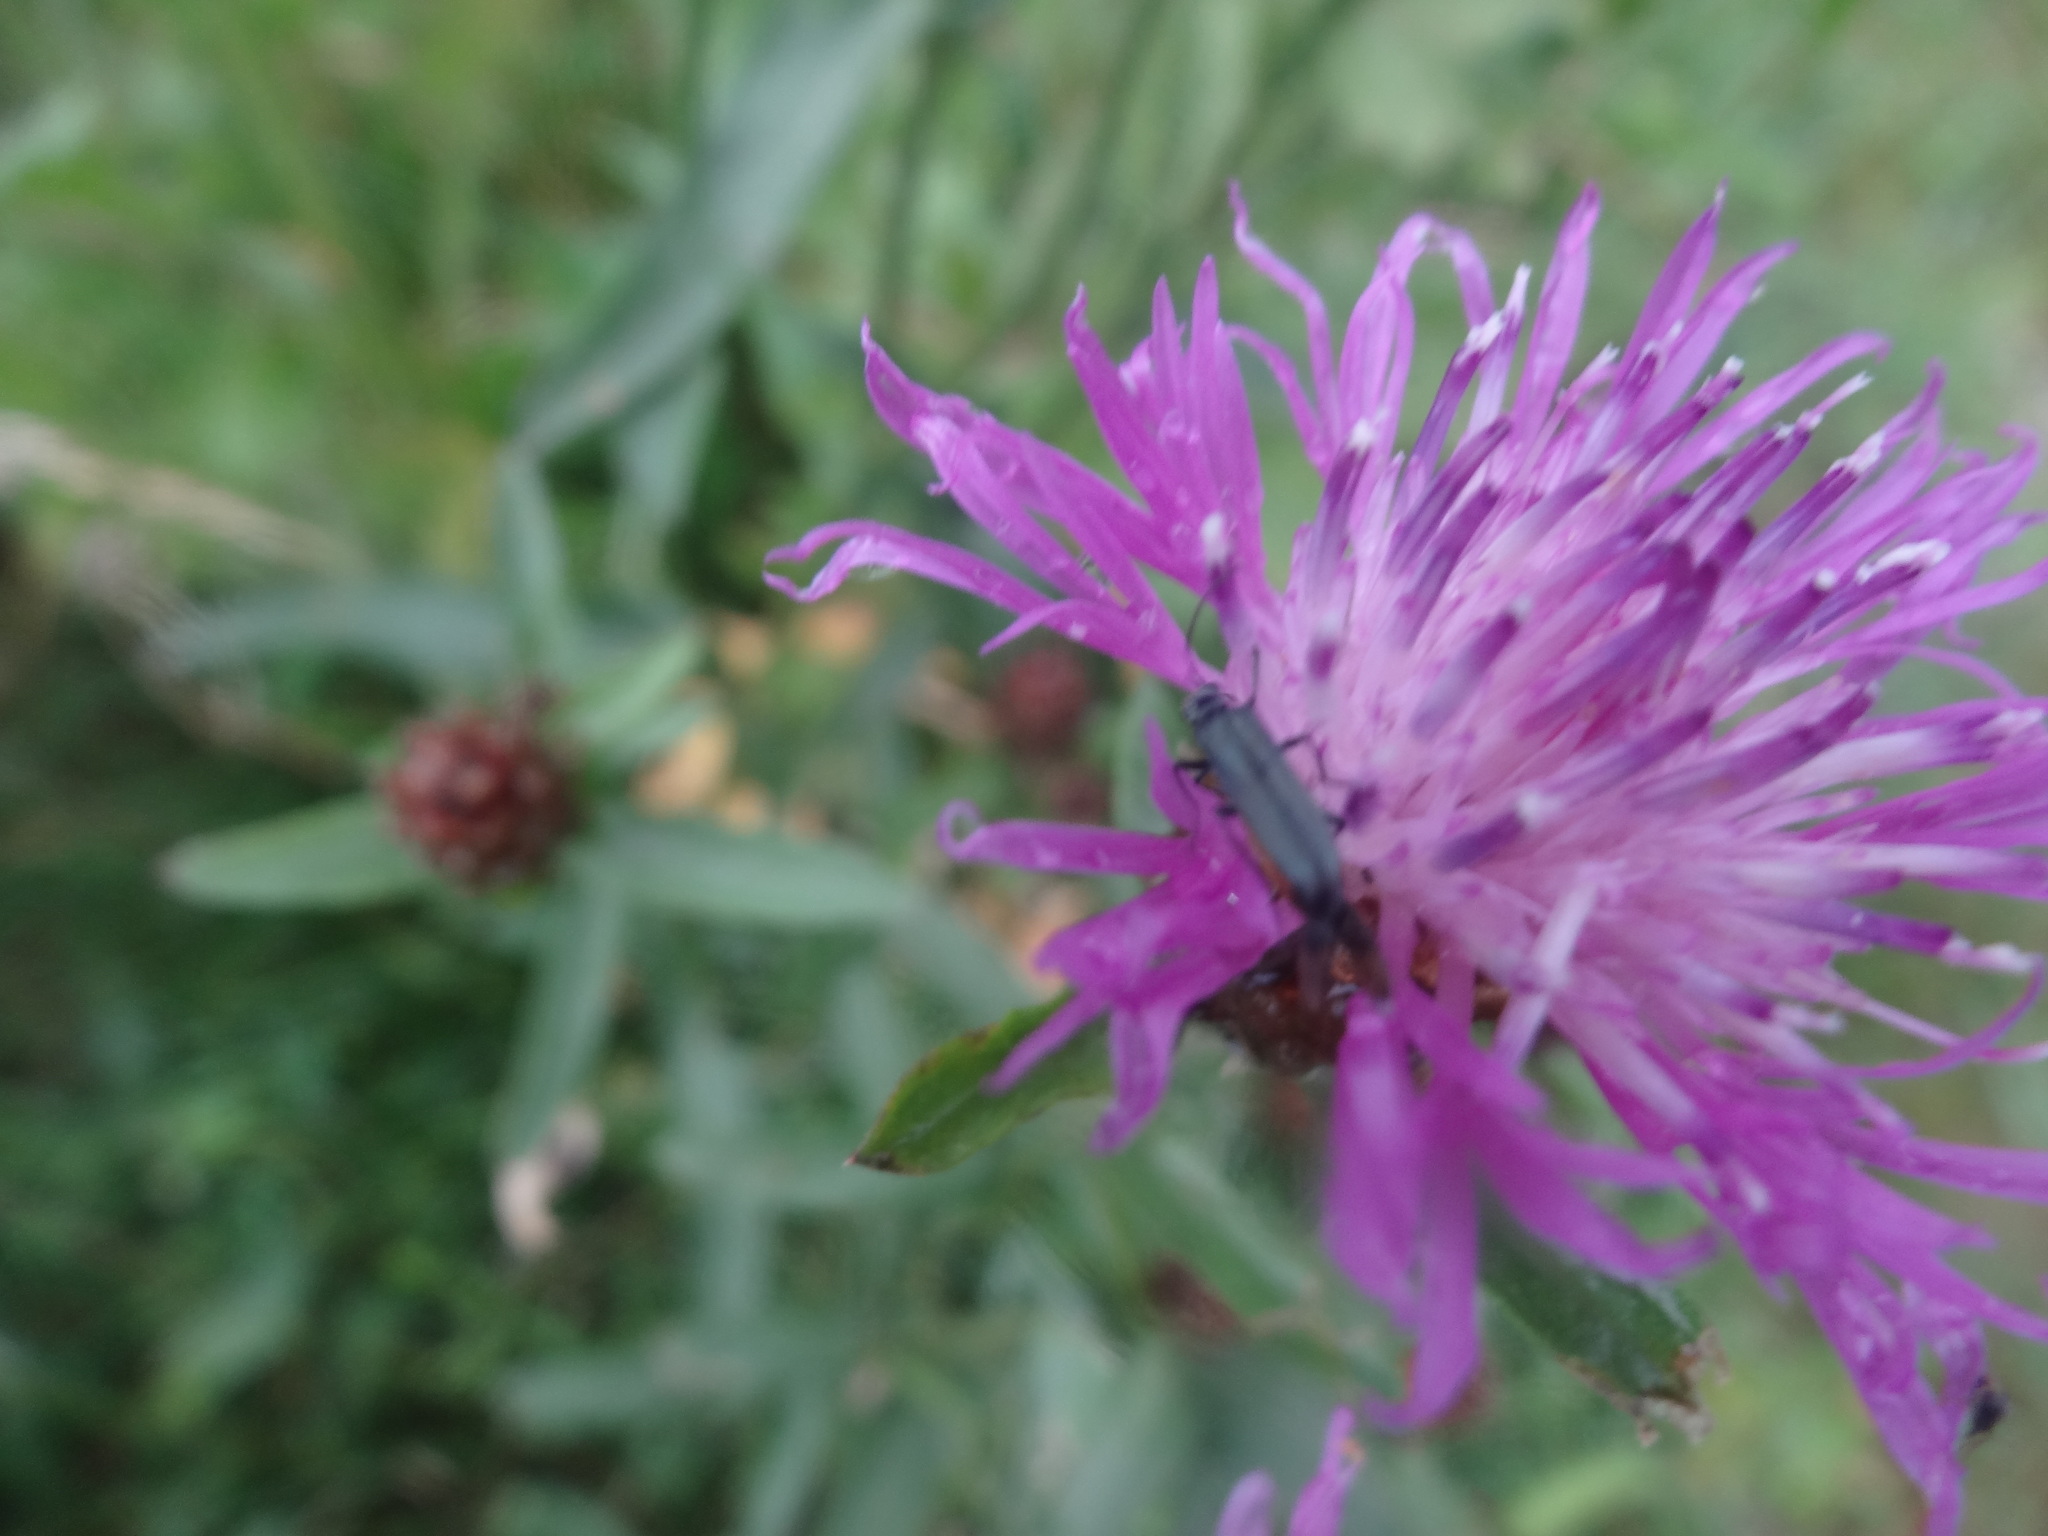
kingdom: Plantae
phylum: Tracheophyta
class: Magnoliopsida
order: Asterales
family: Asteraceae
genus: Centaurea
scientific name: Centaurea jacea
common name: Brown knapweed
